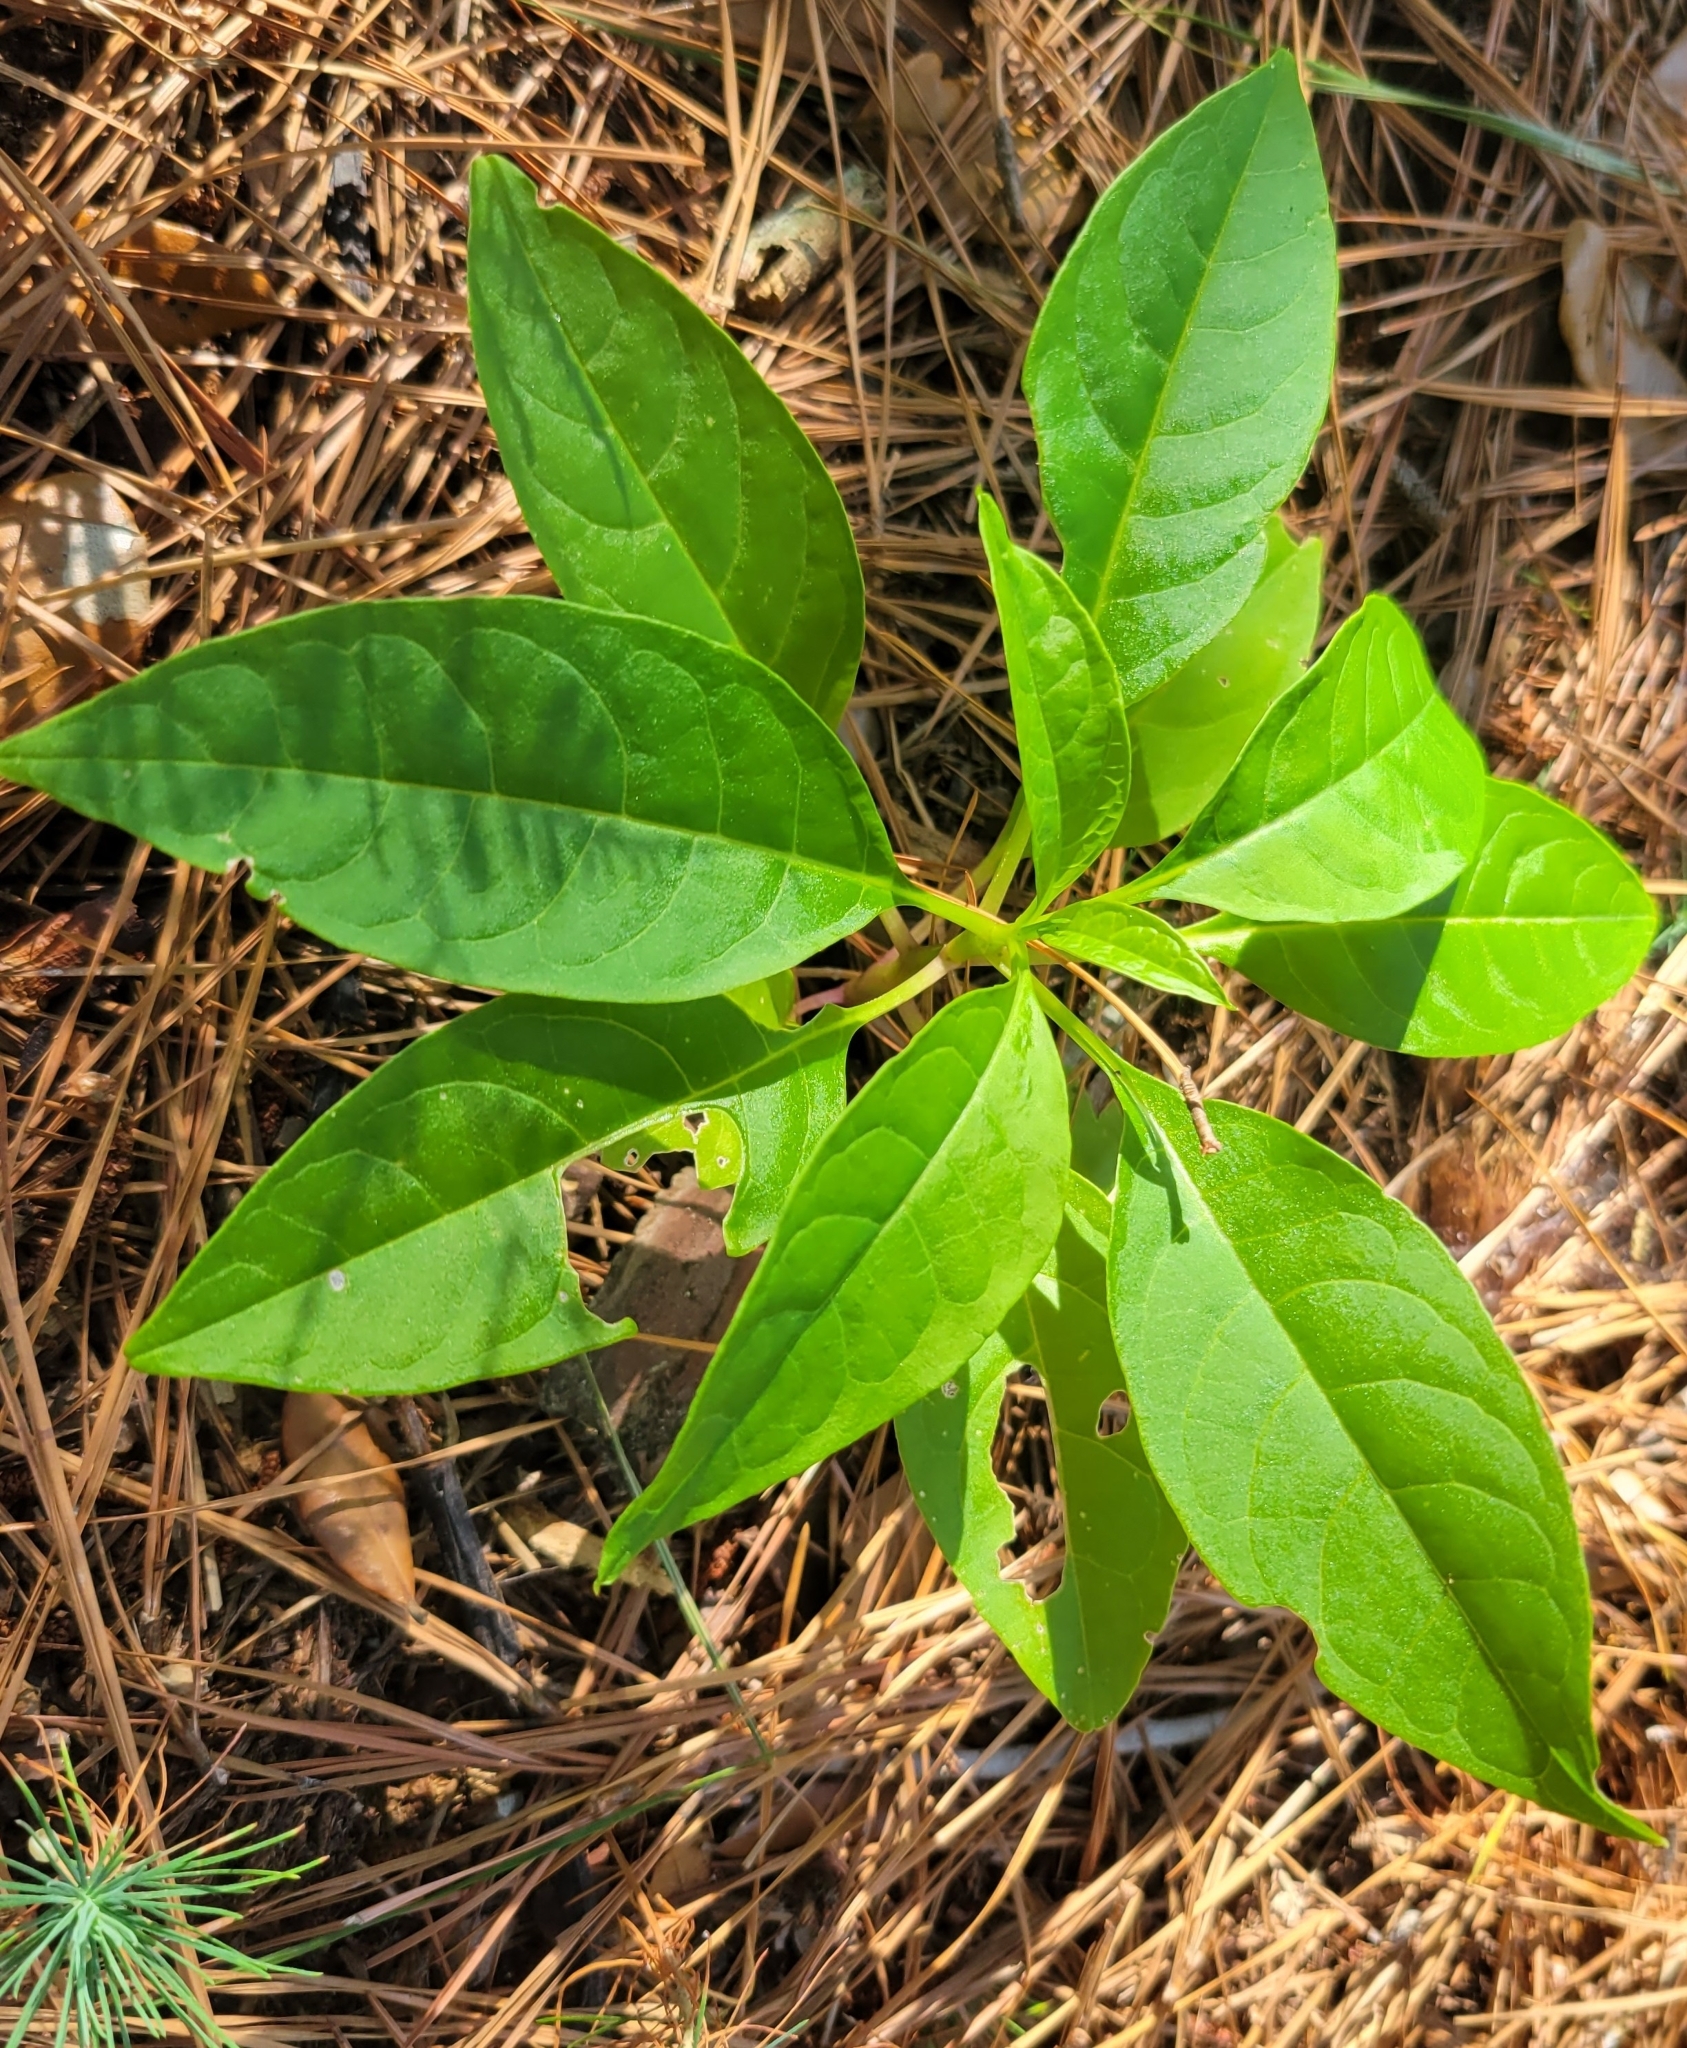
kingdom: Plantae
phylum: Tracheophyta
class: Magnoliopsida
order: Caryophyllales
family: Phytolaccaceae
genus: Phytolacca
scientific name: Phytolacca americana
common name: American pokeweed
